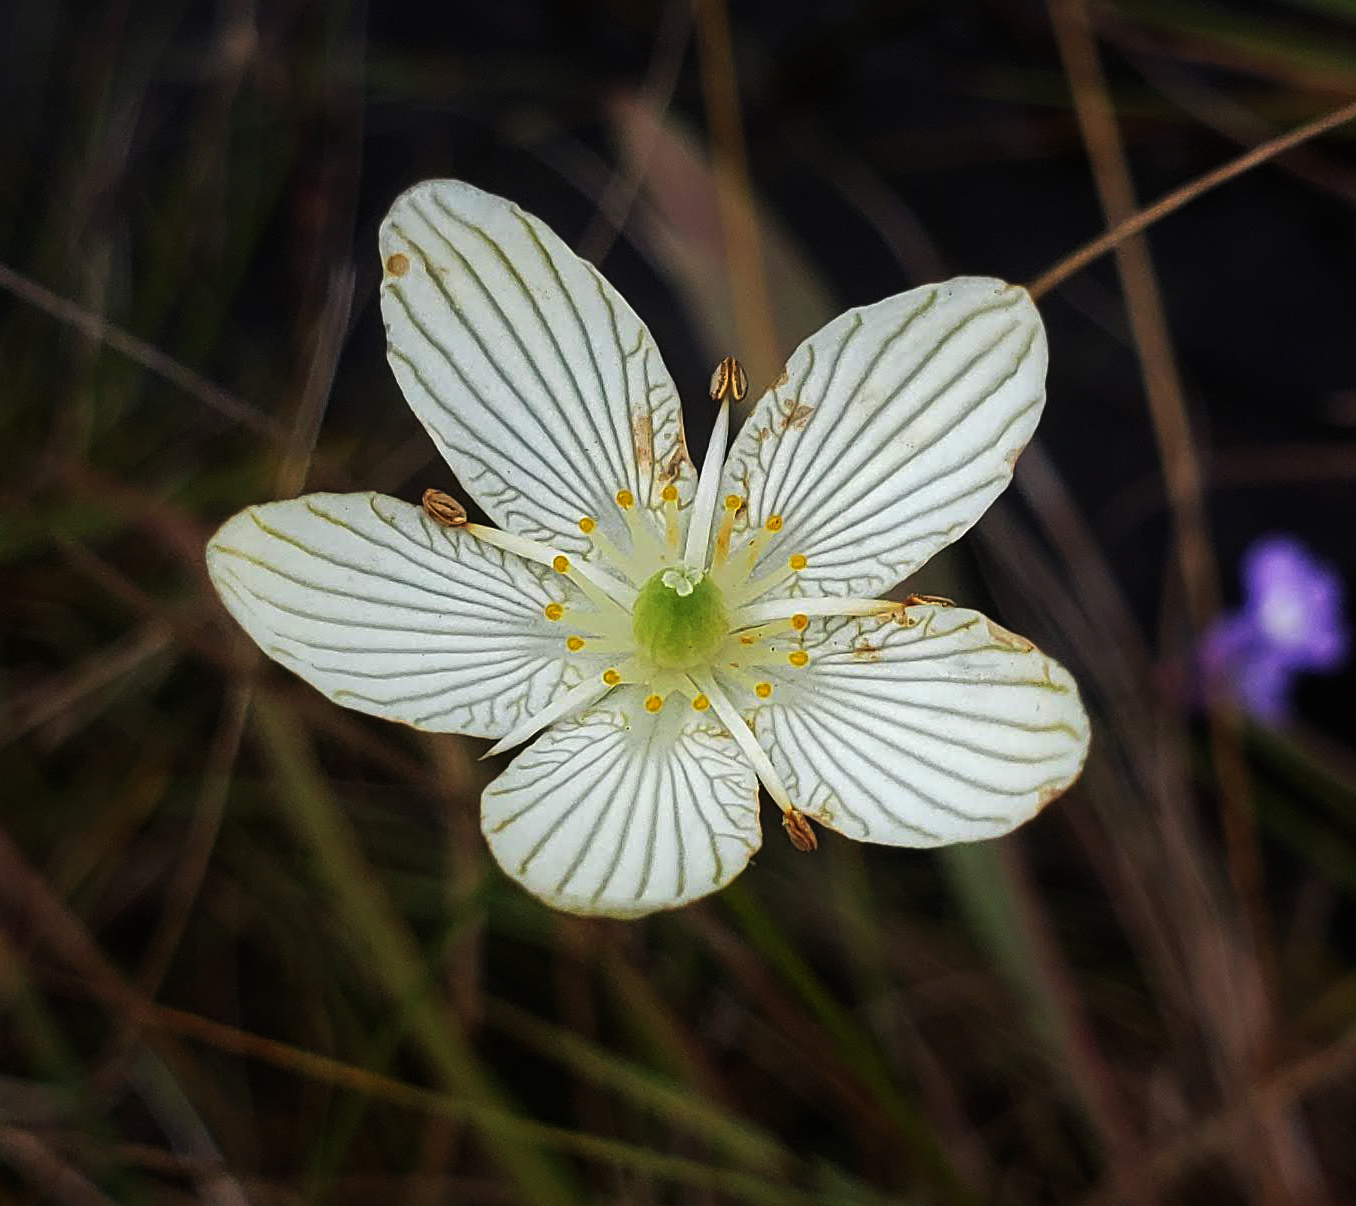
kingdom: Plantae
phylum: Tracheophyta
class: Magnoliopsida
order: Celastrales
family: Parnassiaceae
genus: Parnassia
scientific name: Parnassia glauca
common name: American grass-of-parnassus
